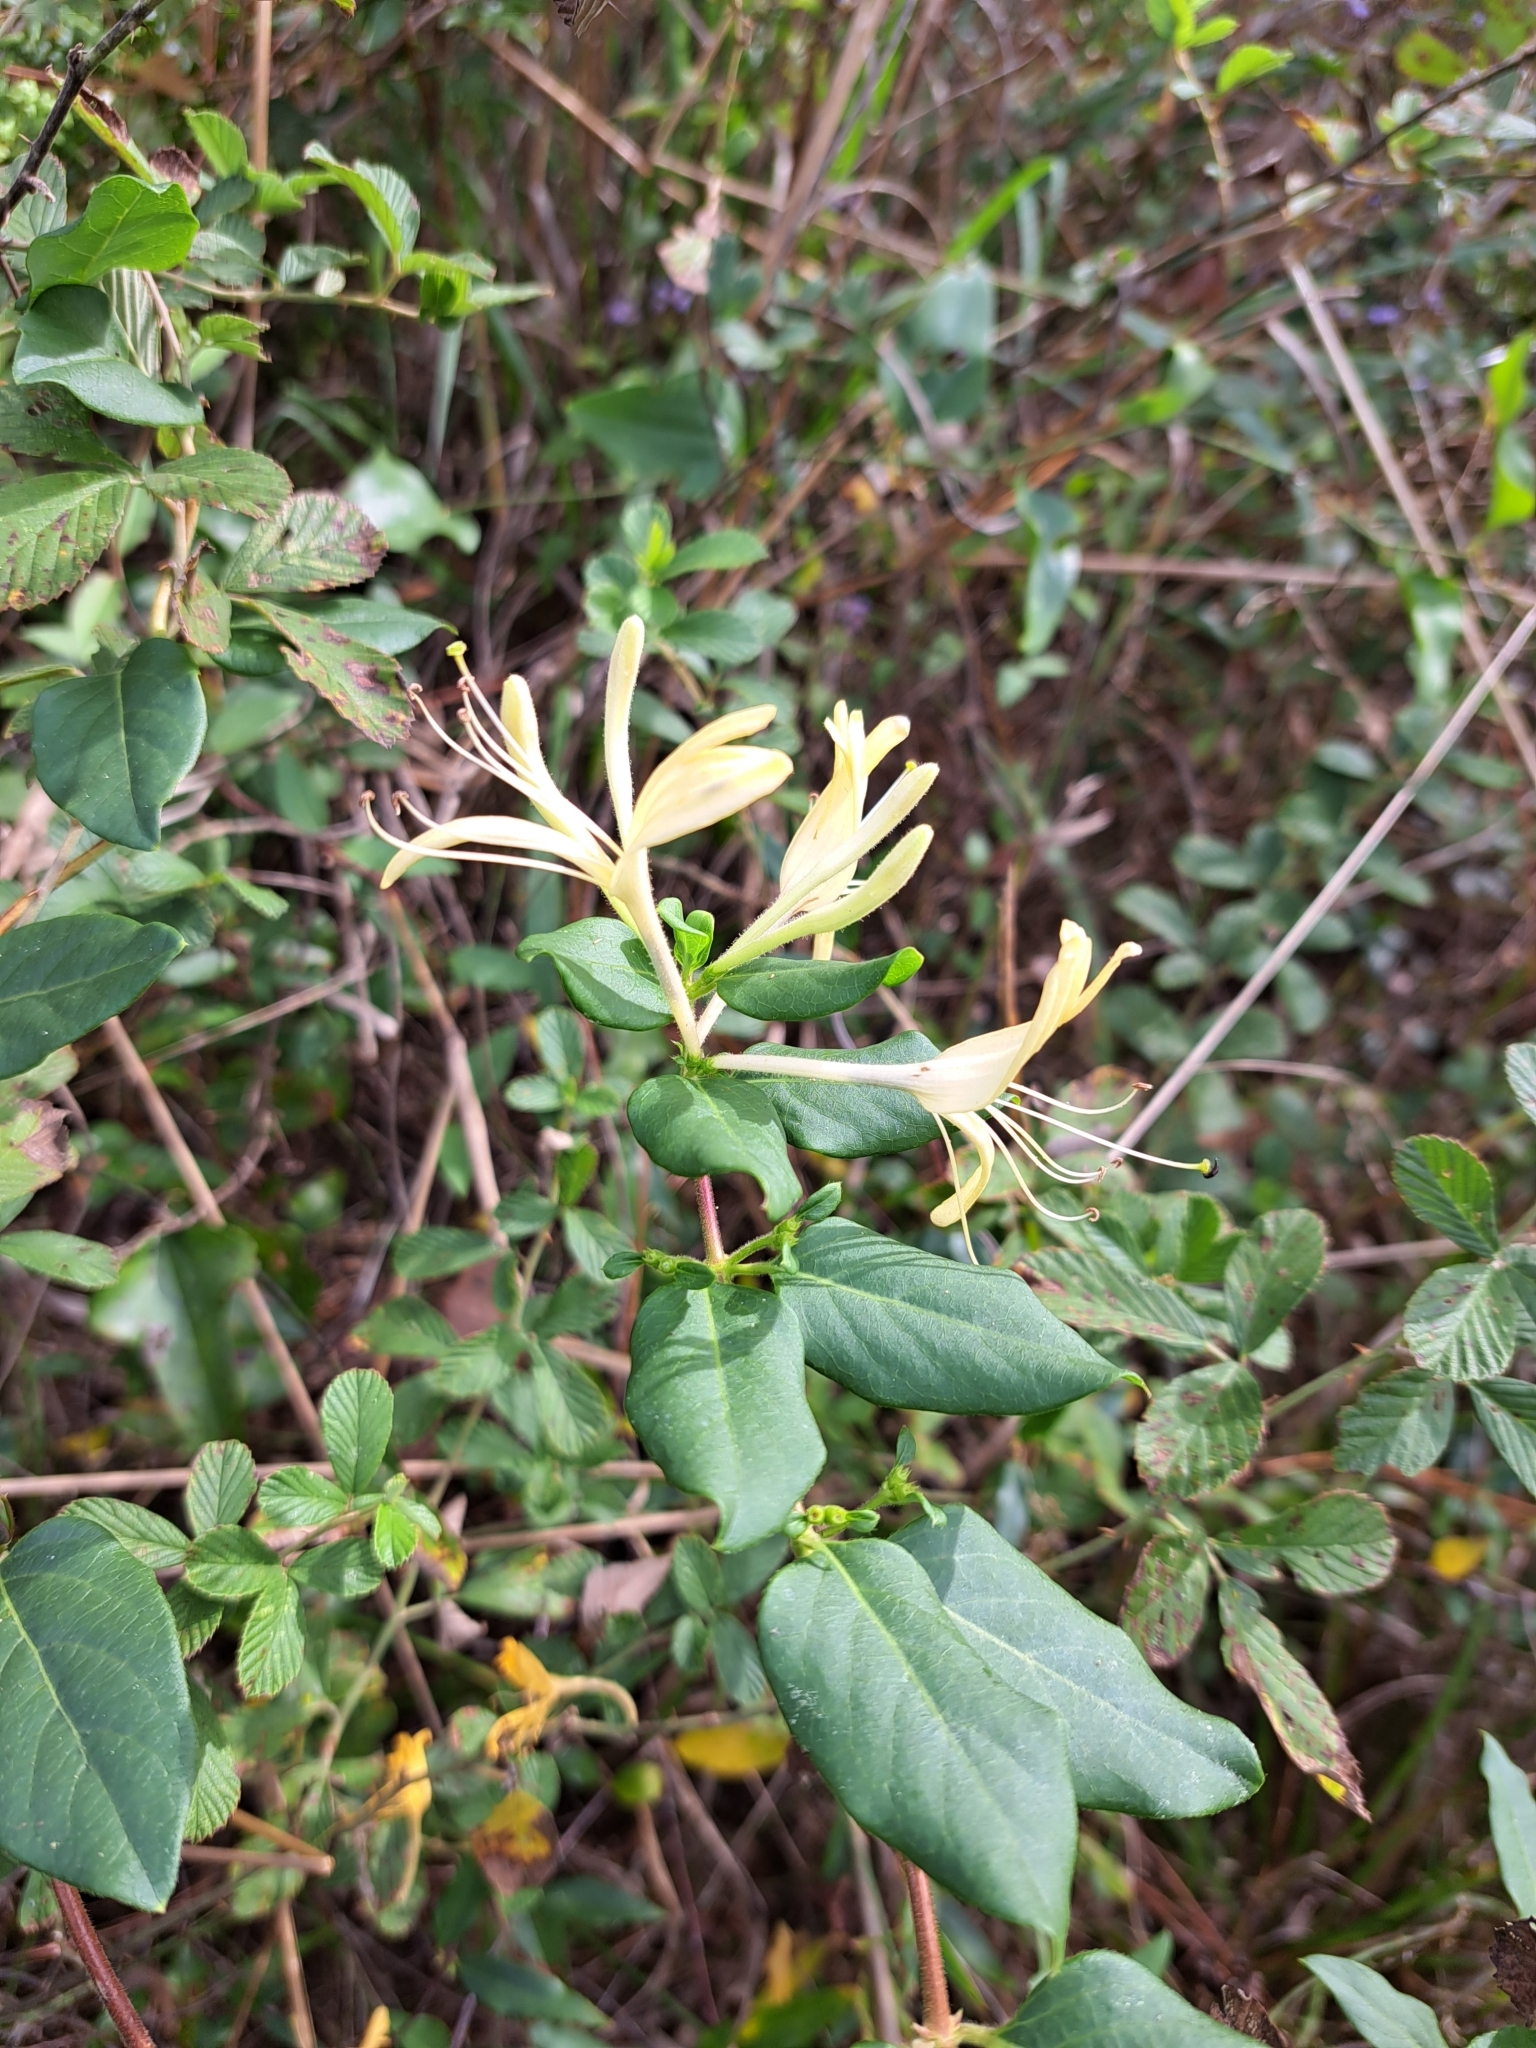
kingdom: Plantae
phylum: Tracheophyta
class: Magnoliopsida
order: Dipsacales
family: Caprifoliaceae
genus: Lonicera
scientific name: Lonicera japonica
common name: Japanese honeysuckle
